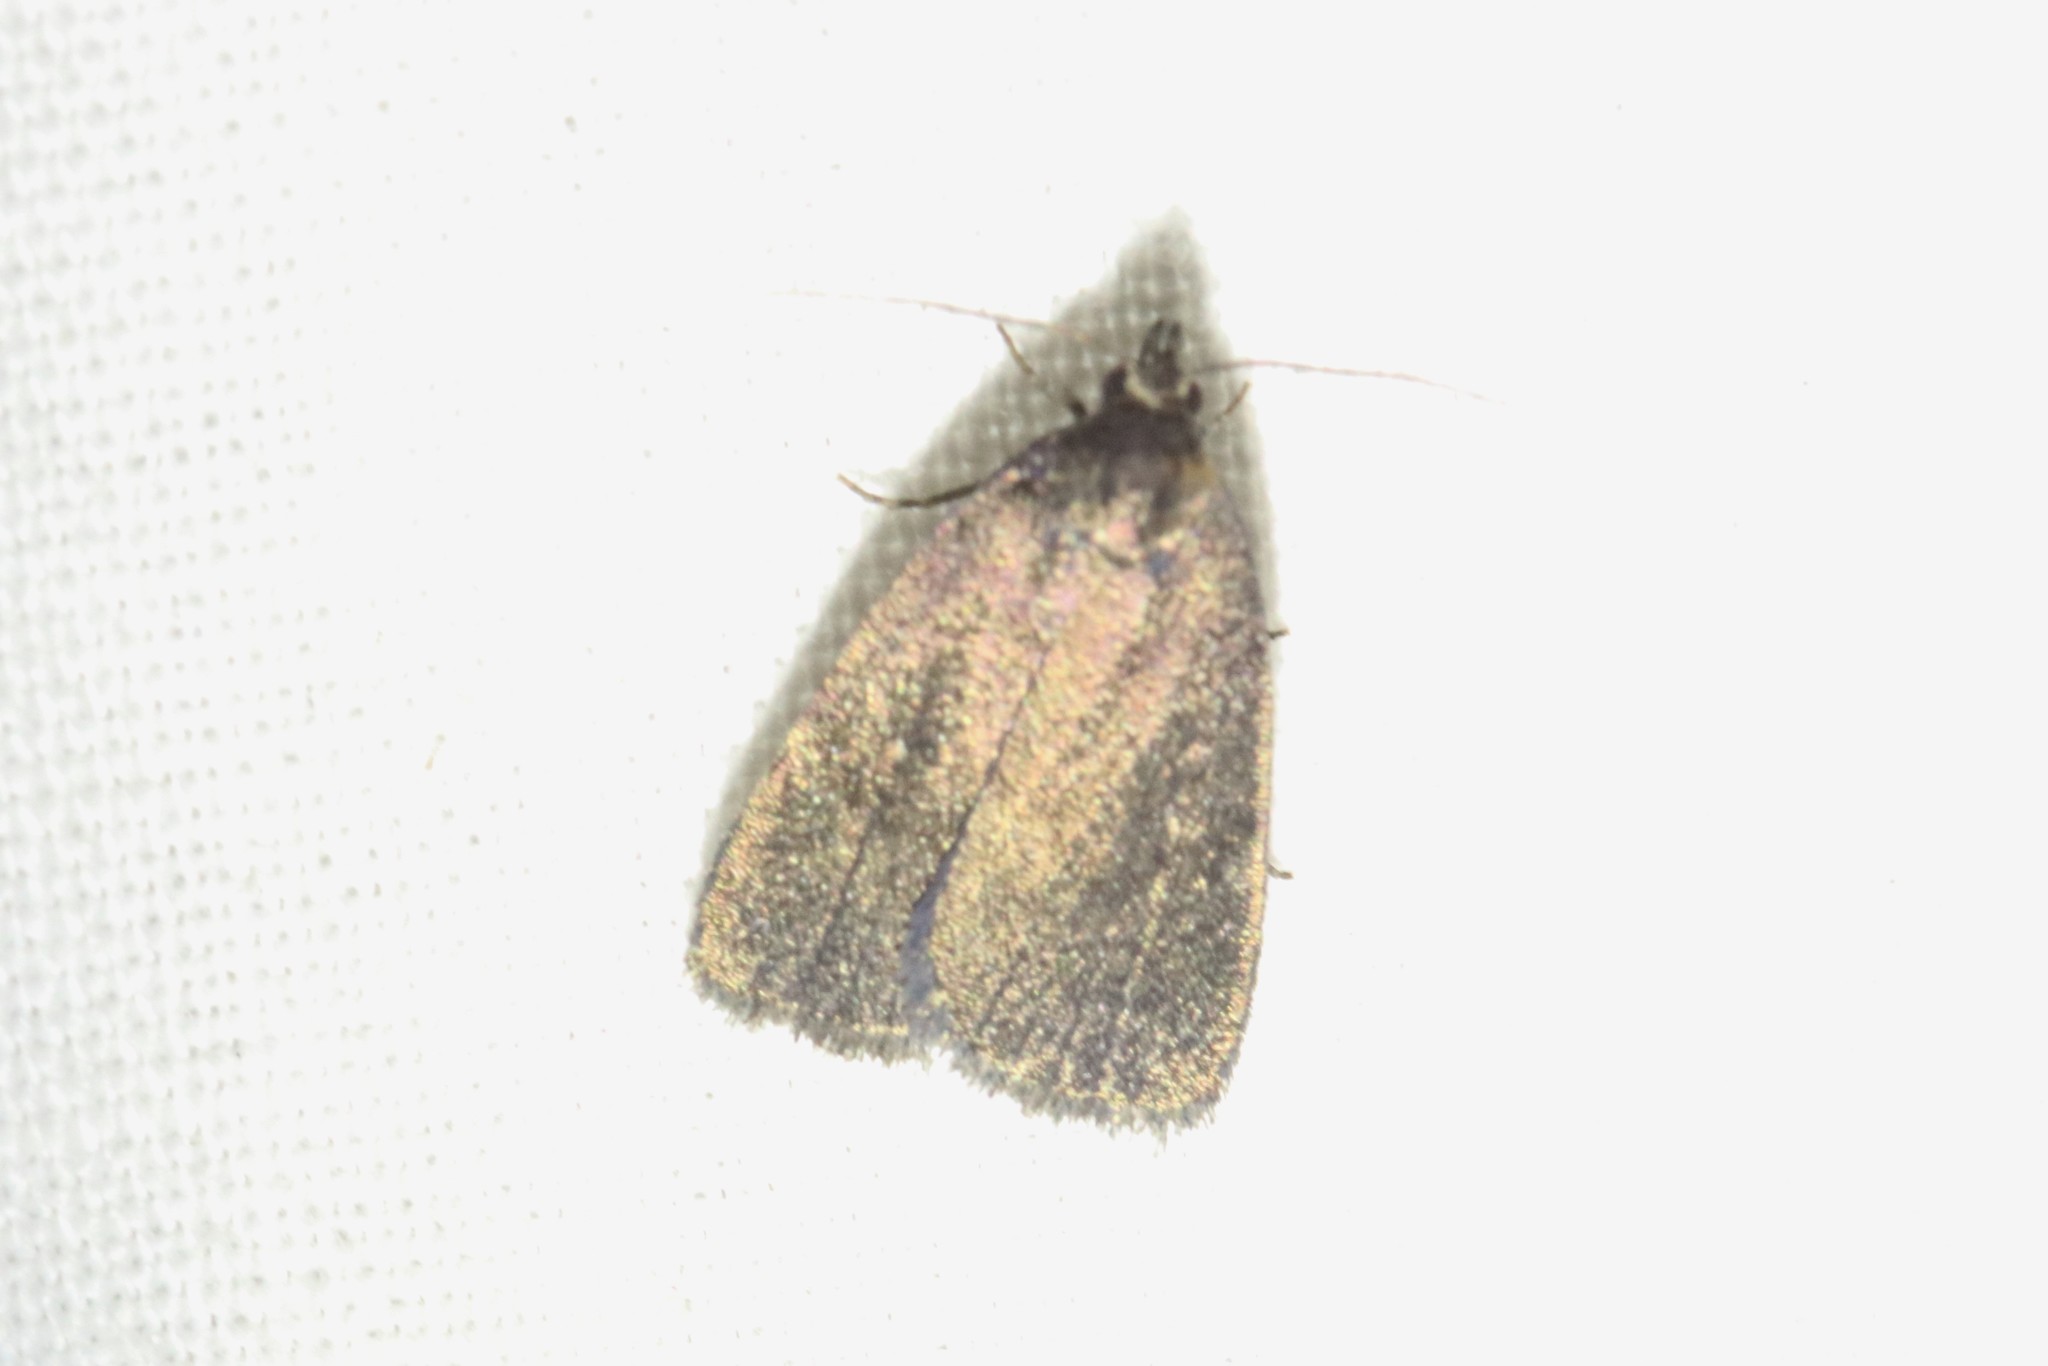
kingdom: Animalia
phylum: Arthropoda
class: Insecta
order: Lepidoptera
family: Erebidae
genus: Idia
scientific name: Idia rotundalis
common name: Rotund idia moth
